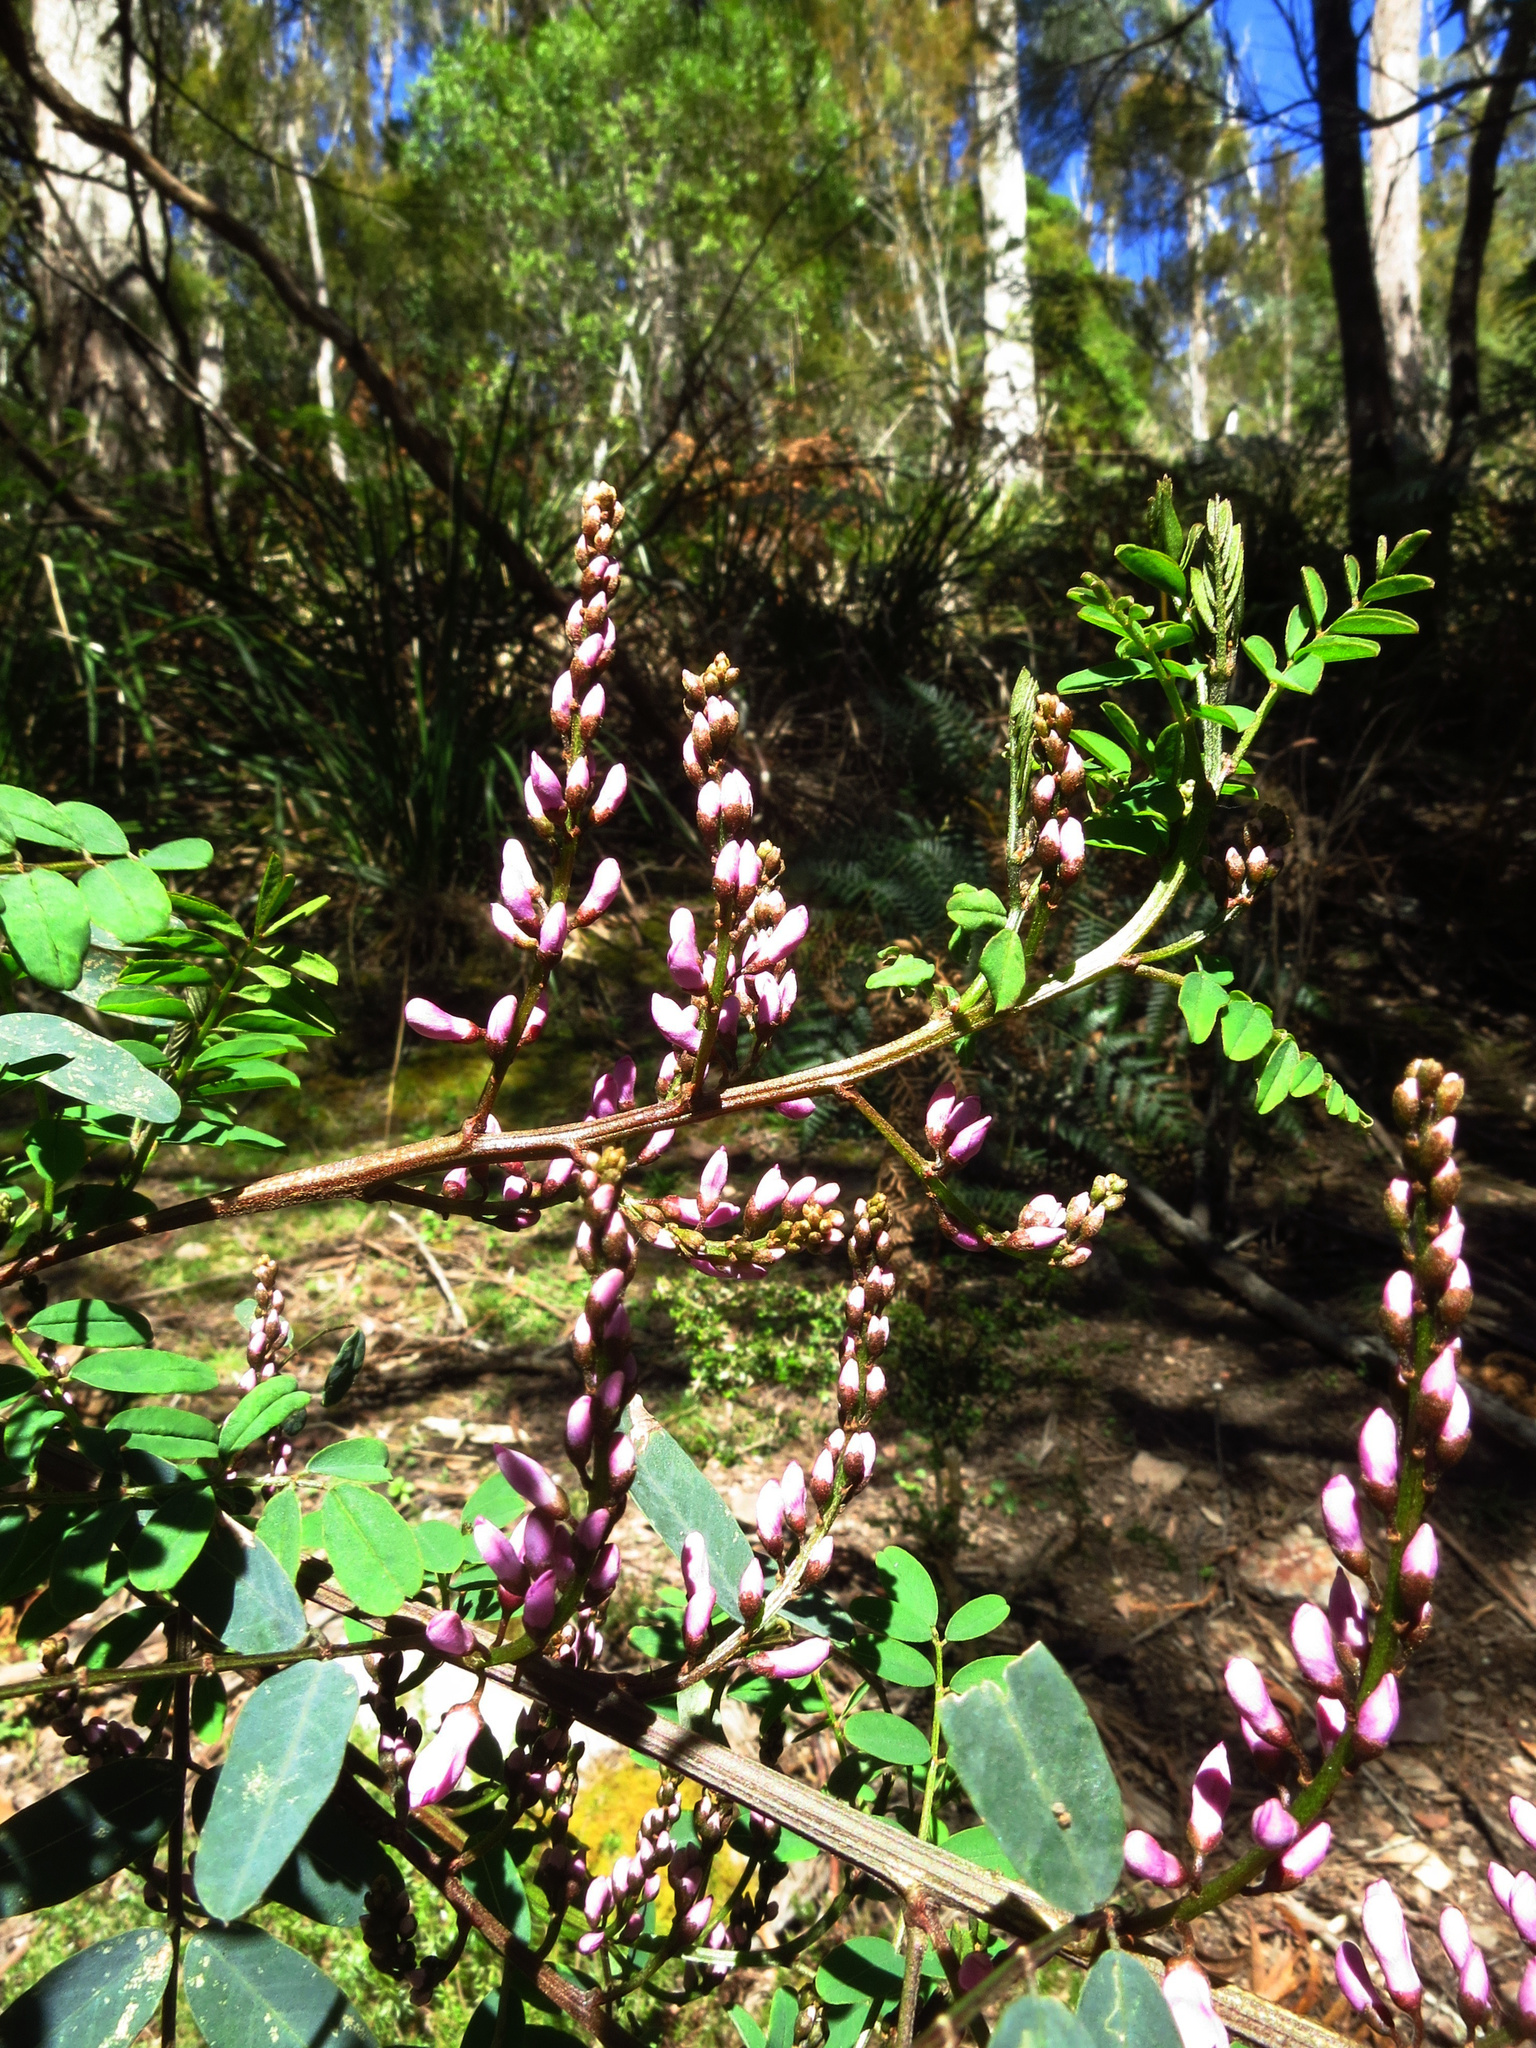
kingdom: Plantae
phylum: Tracheophyta
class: Magnoliopsida
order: Fabales
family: Fabaceae
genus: Indigofera
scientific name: Indigofera australis
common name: Australian indigo
